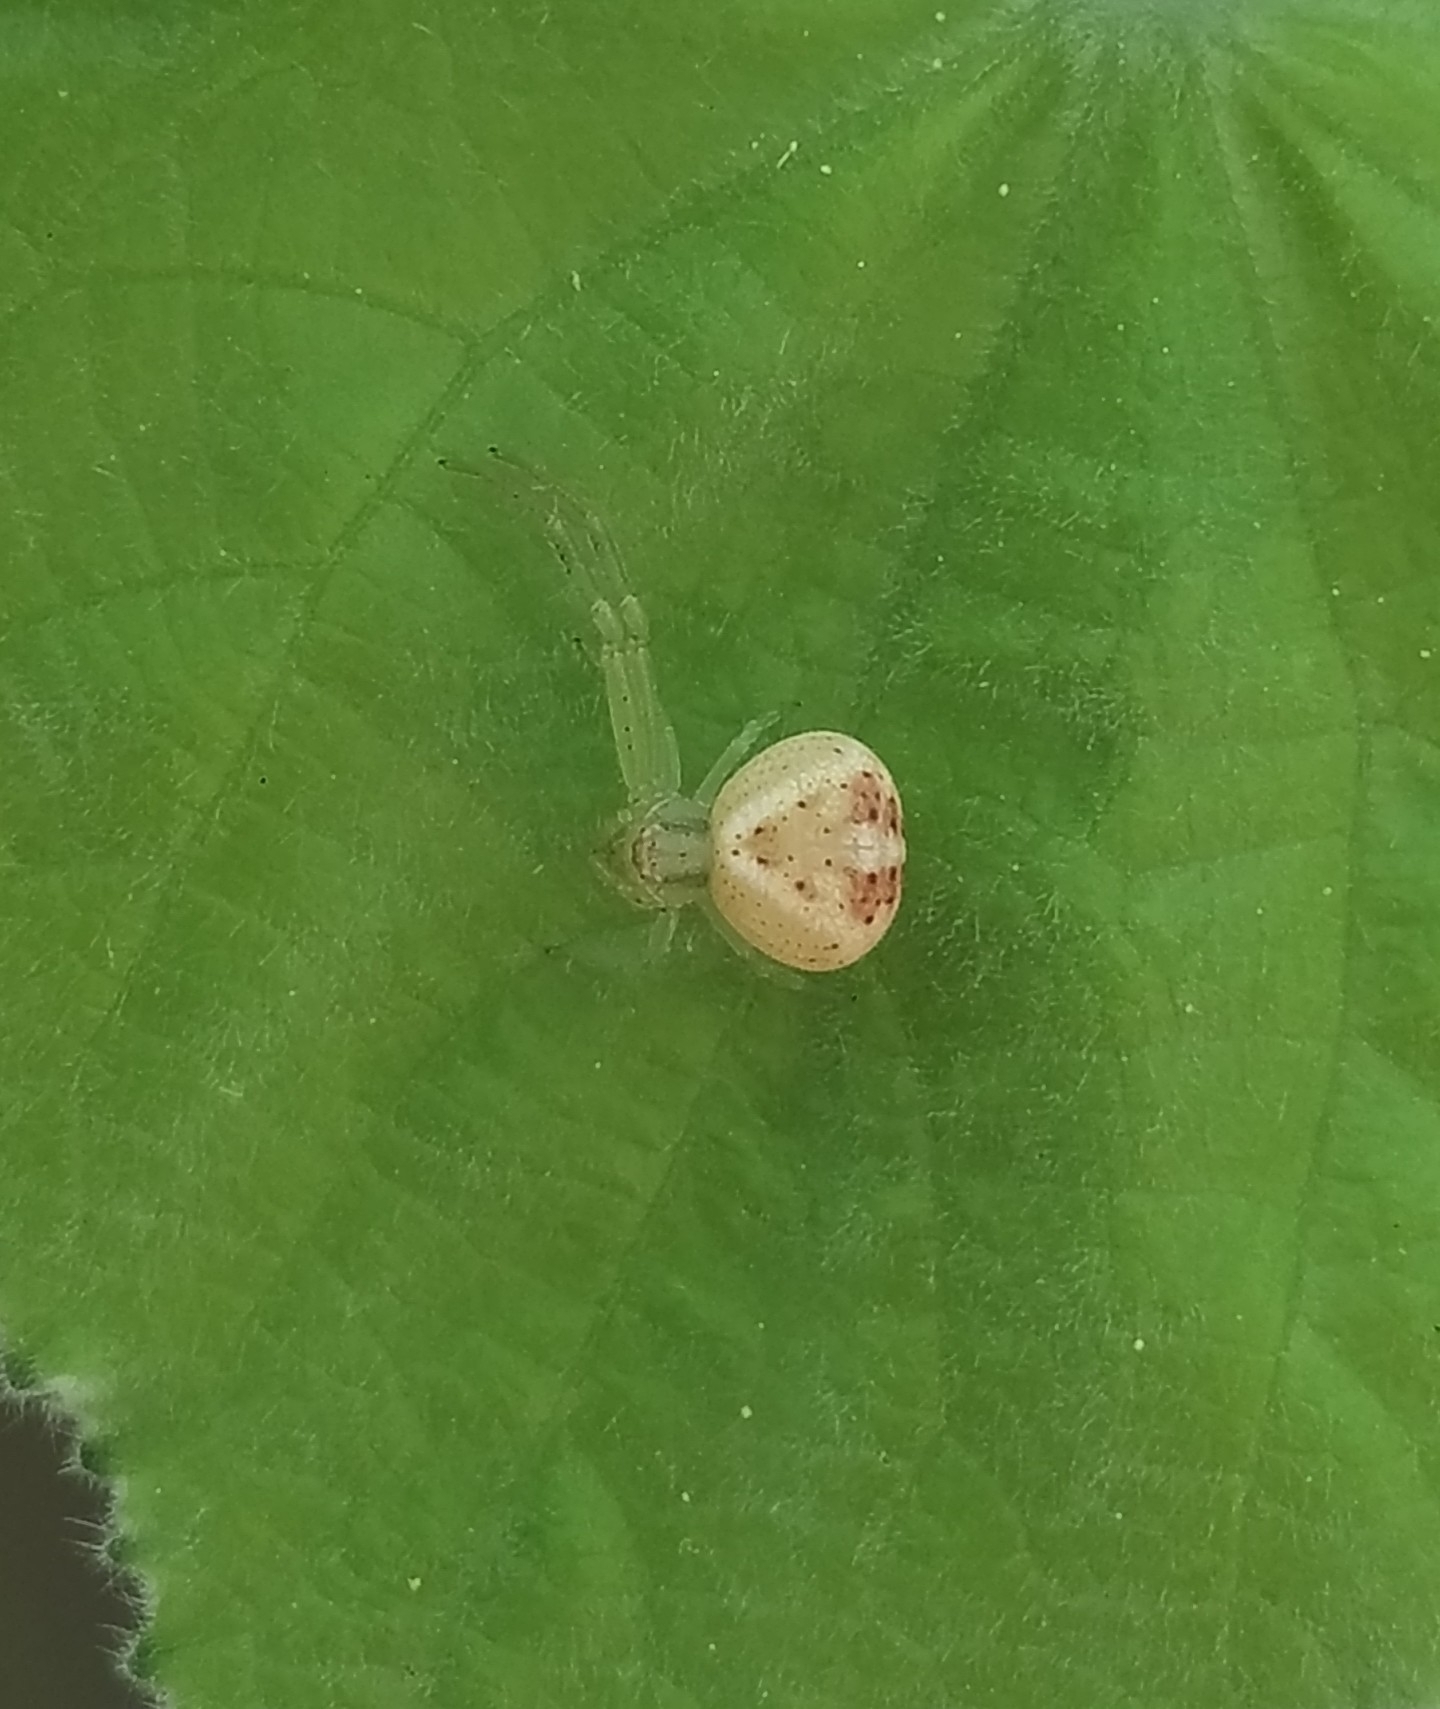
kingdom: Animalia
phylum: Arthropoda
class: Arachnida
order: Araneae
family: Thomisidae
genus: Misumenops
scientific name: Misumenops
